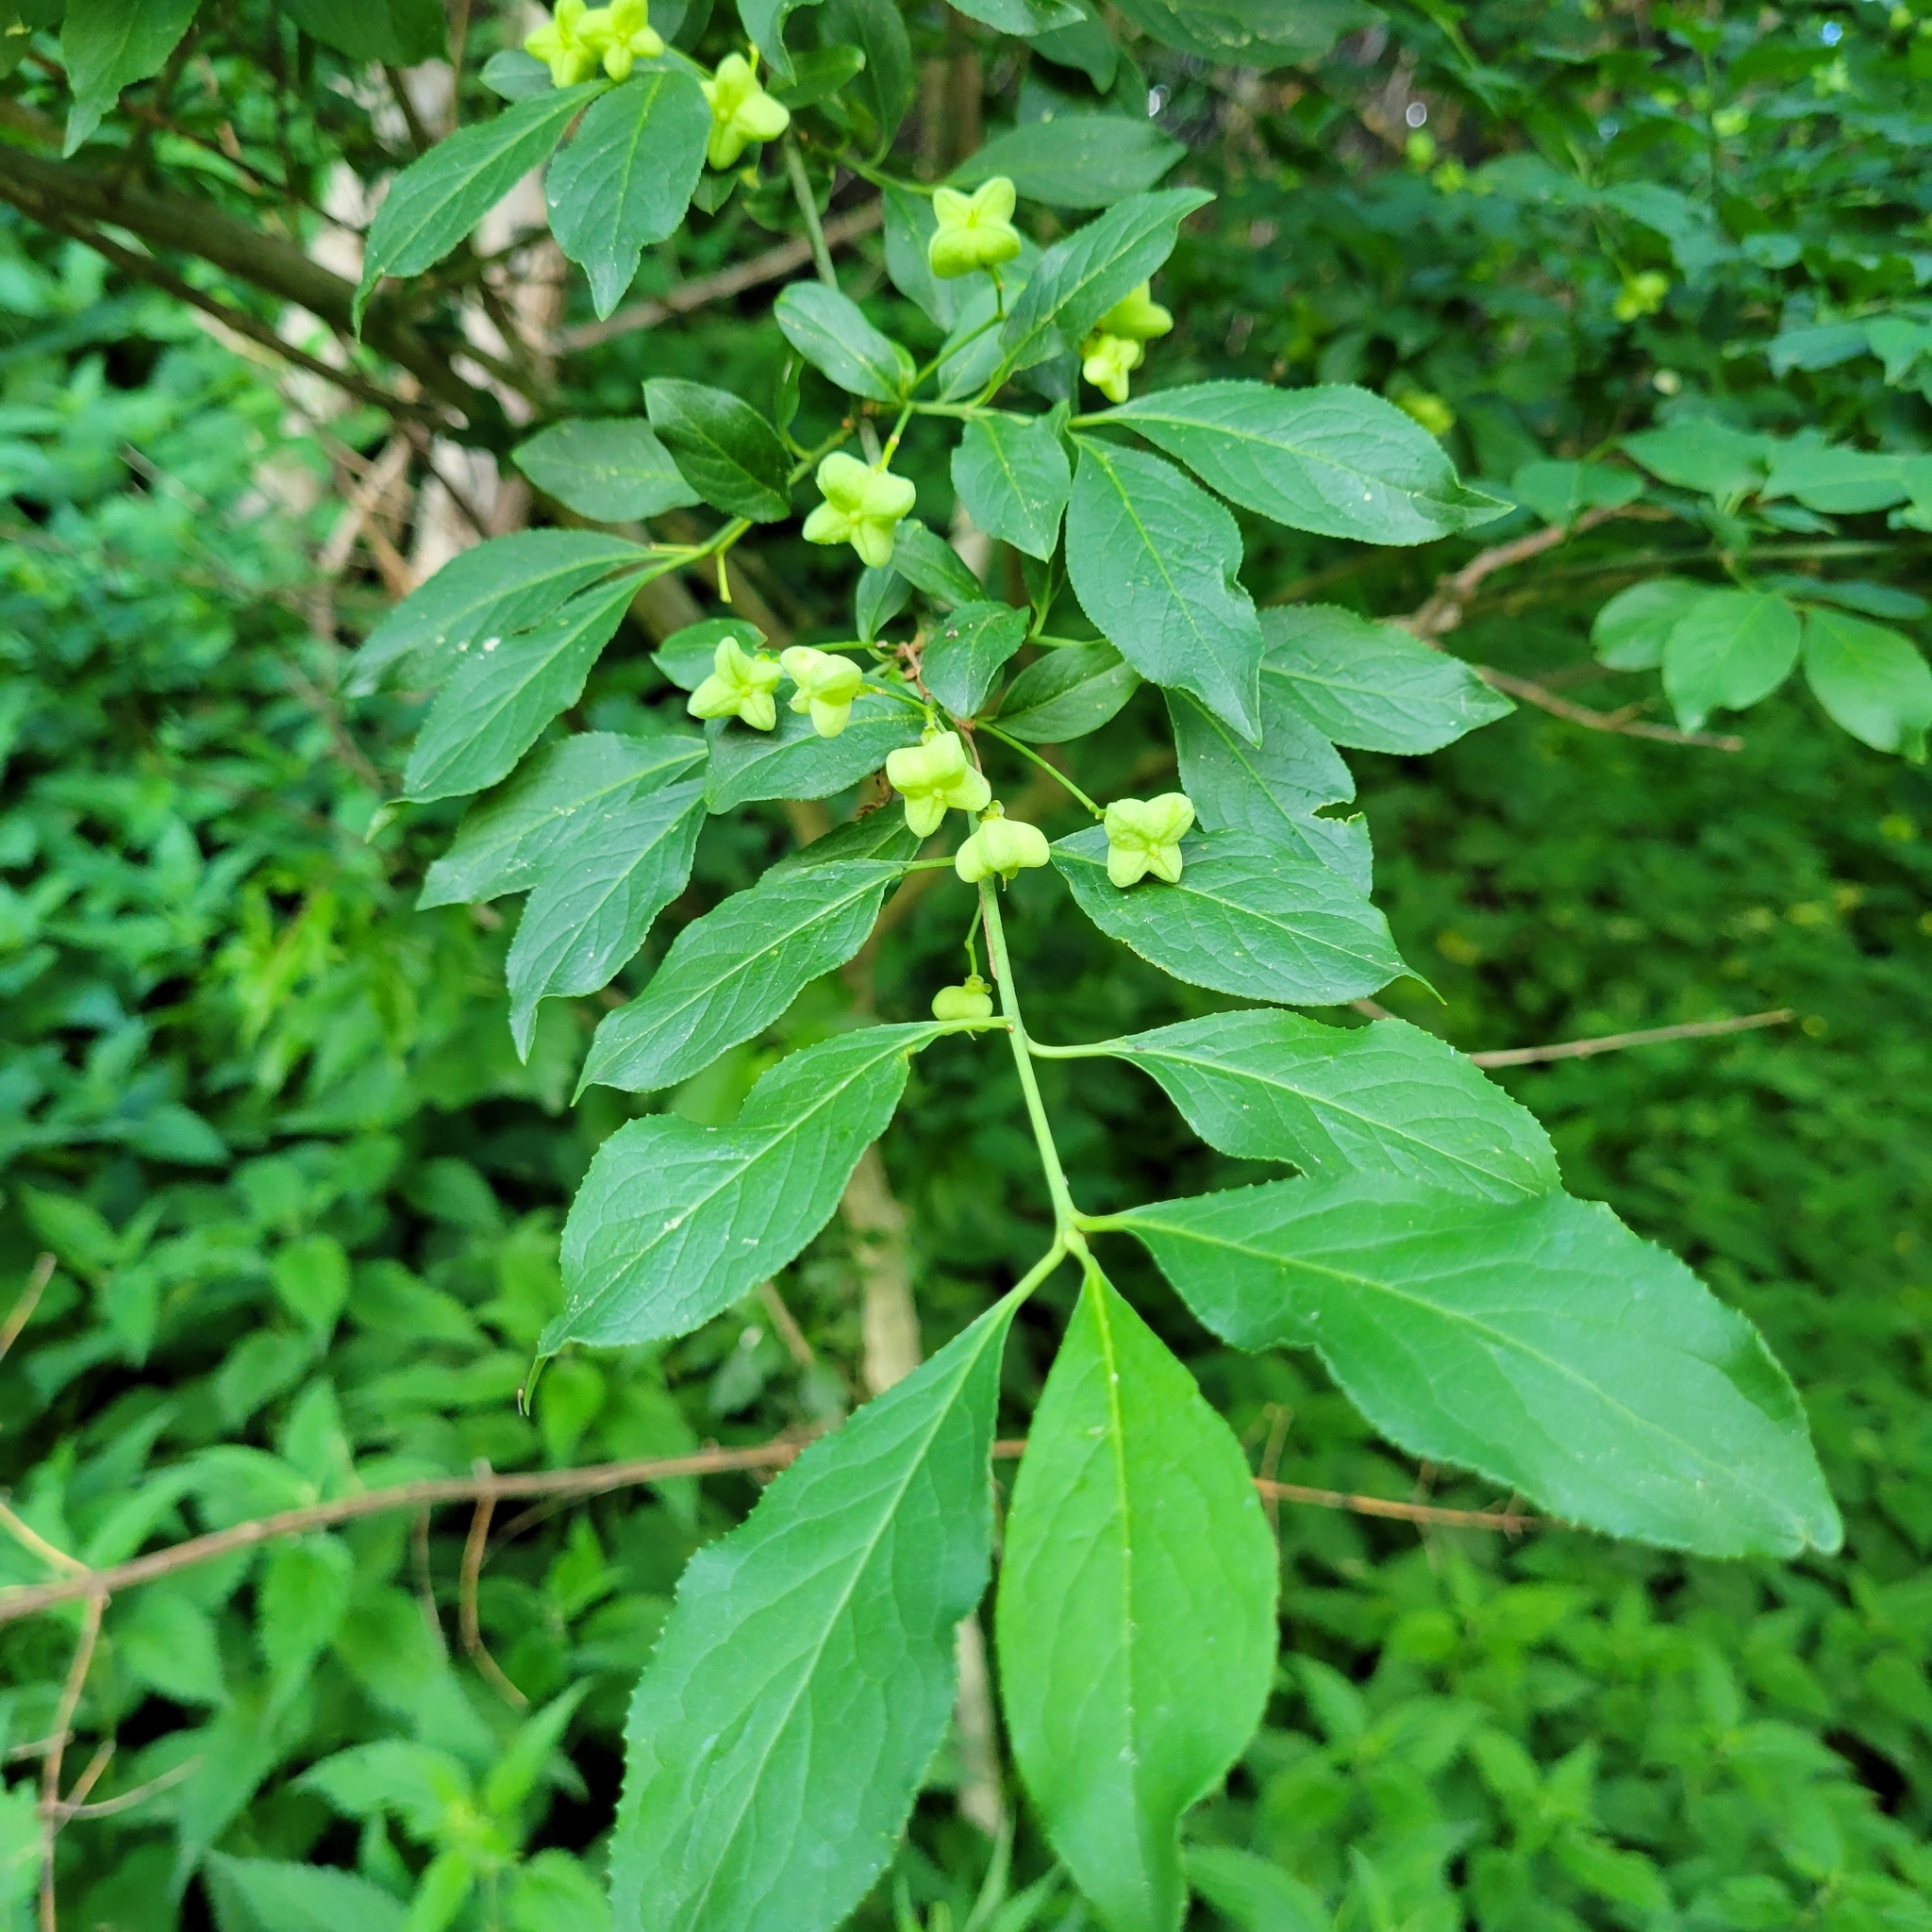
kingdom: Plantae
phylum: Tracheophyta
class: Magnoliopsida
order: Celastrales
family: Celastraceae
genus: Euonymus
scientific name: Euonymus europaeus
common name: Spindle
